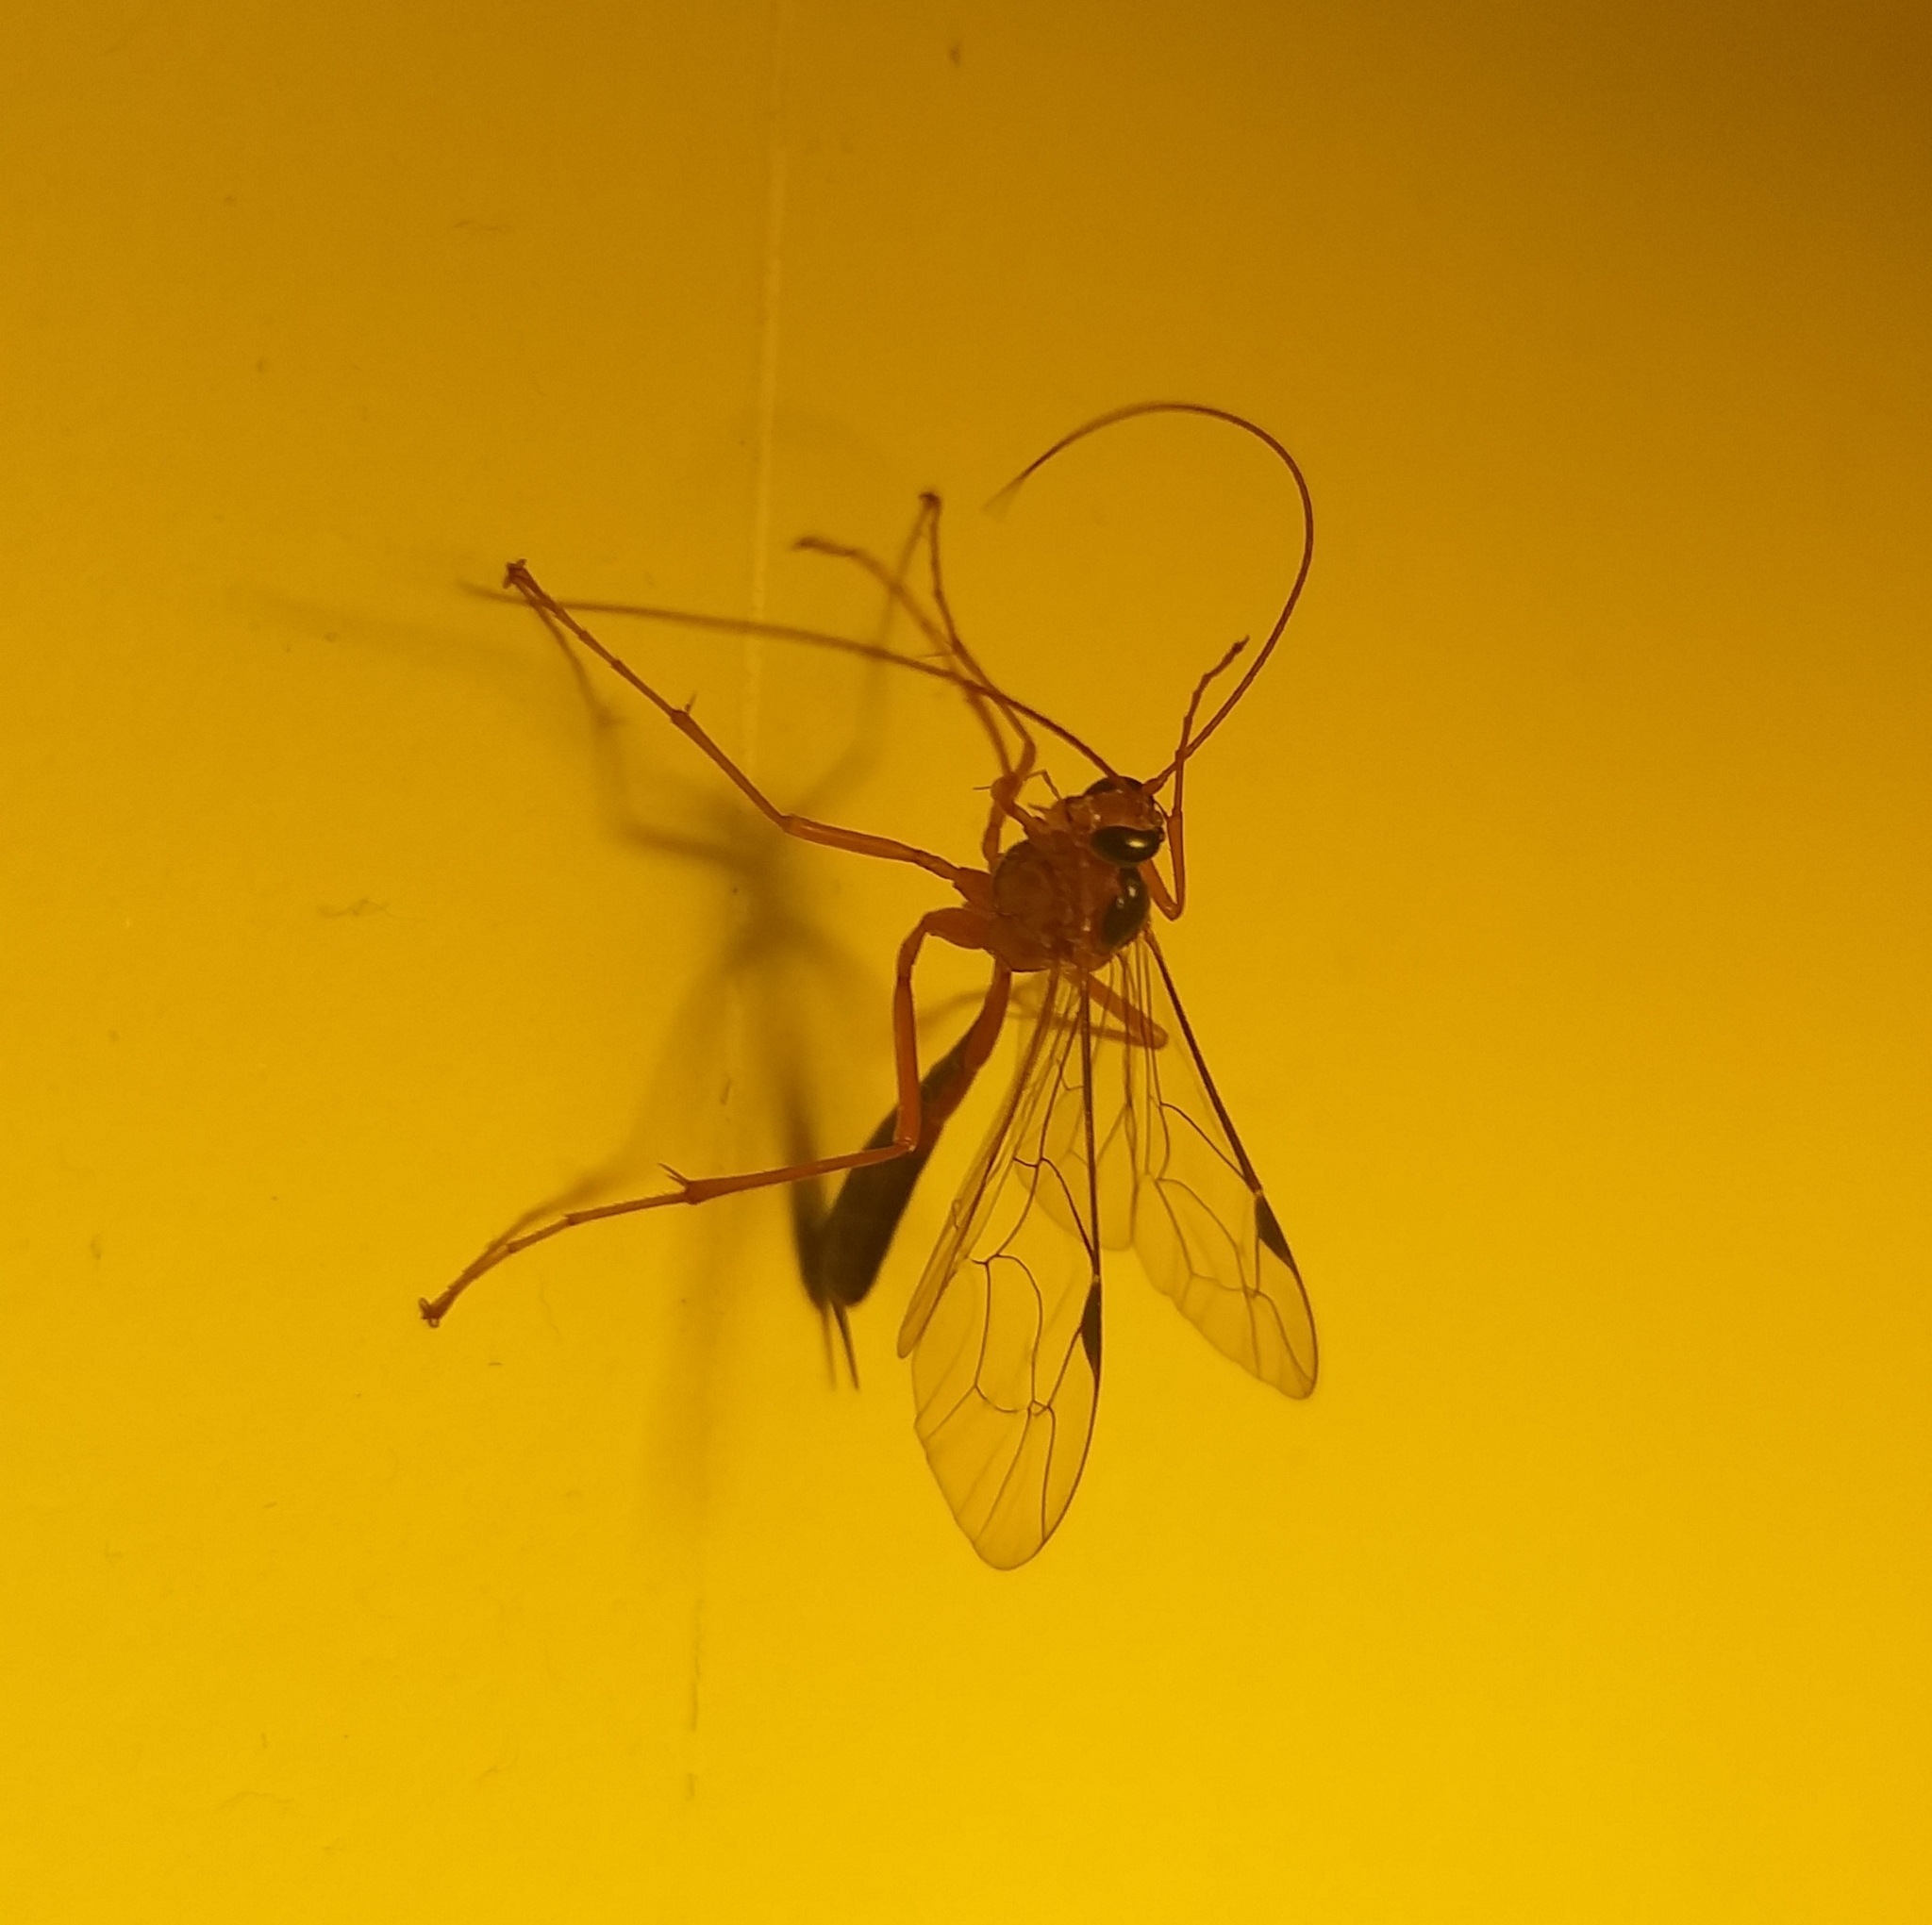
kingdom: Animalia
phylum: Arthropoda
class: Insecta
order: Hymenoptera
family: Ichneumonidae
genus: Netelia
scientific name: Netelia ephippiata
